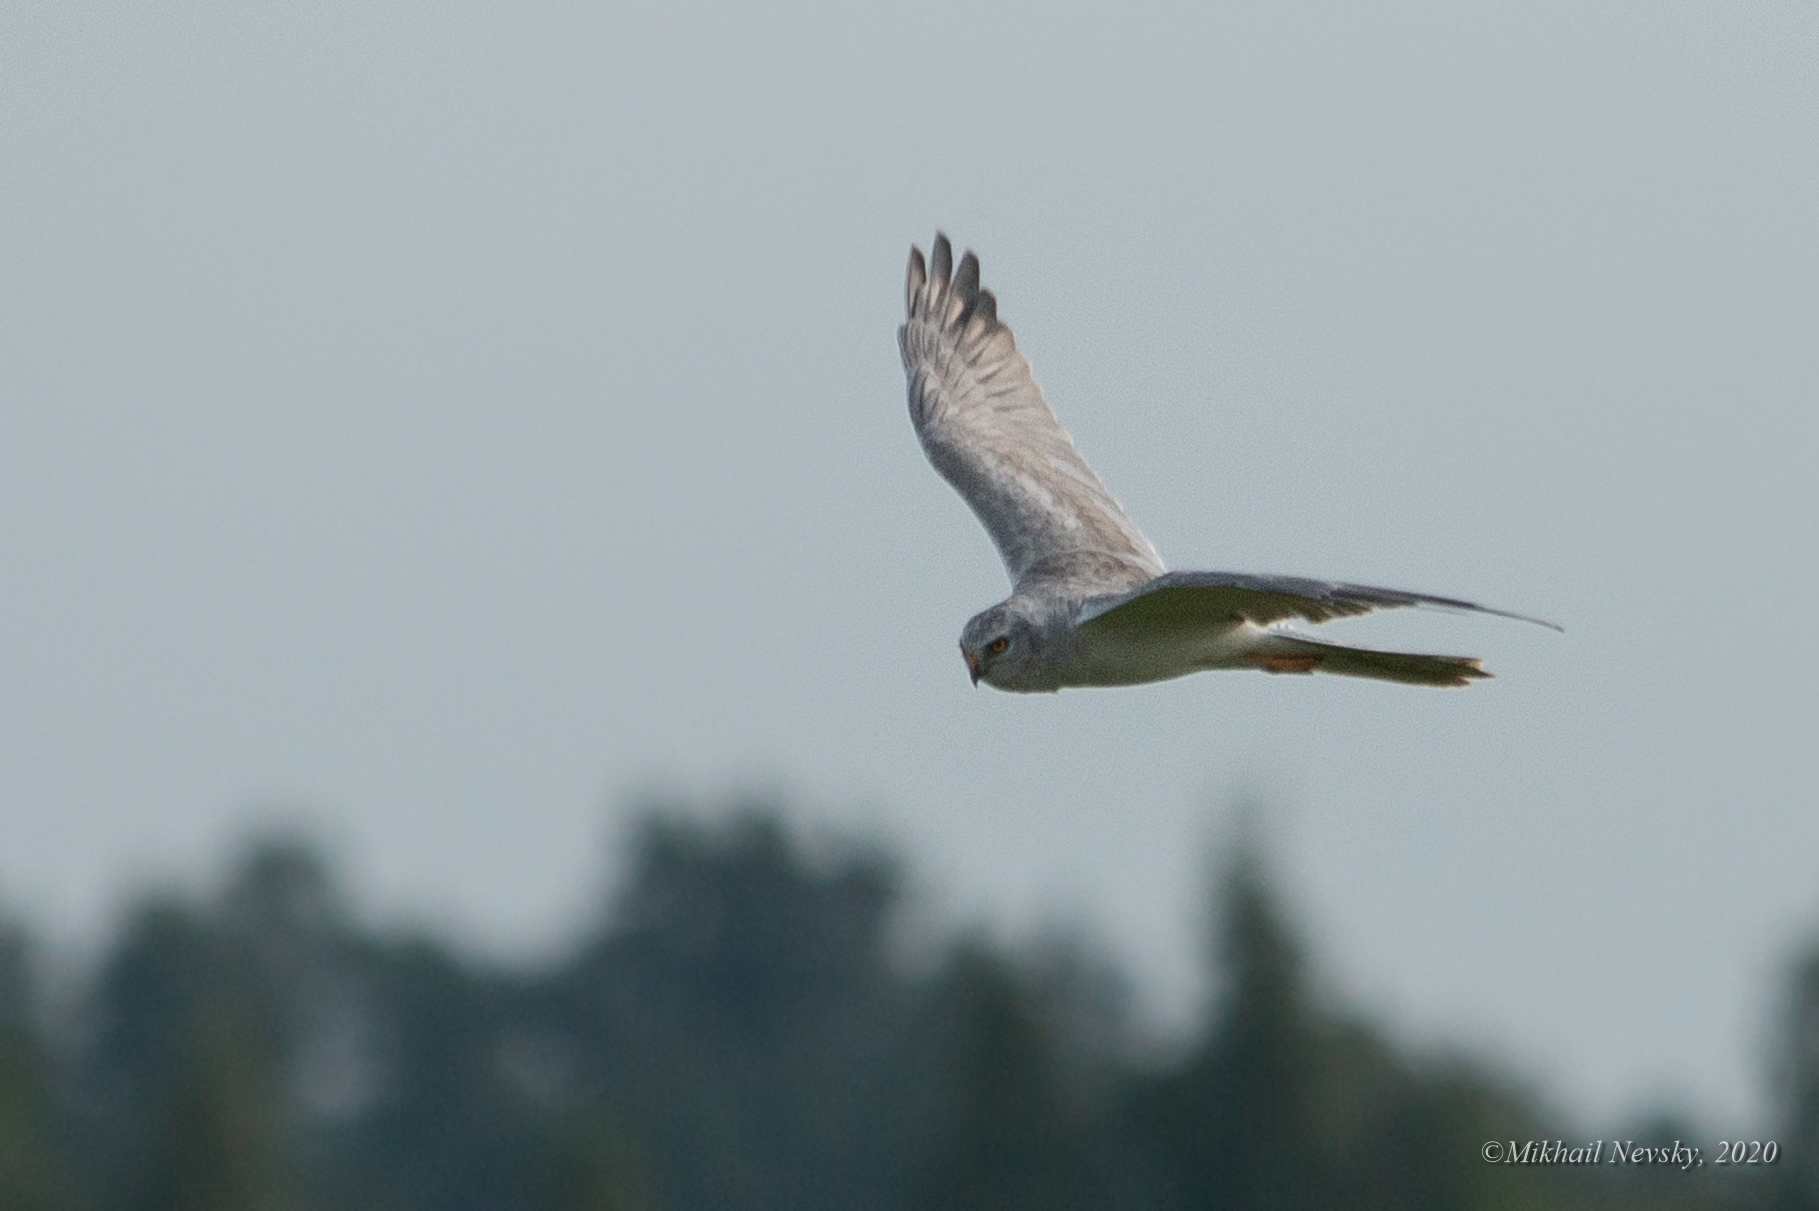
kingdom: Animalia
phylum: Chordata
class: Aves
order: Accipitriformes
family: Accipitridae
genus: Circus
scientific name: Circus macrourus
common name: Pallid harrier
